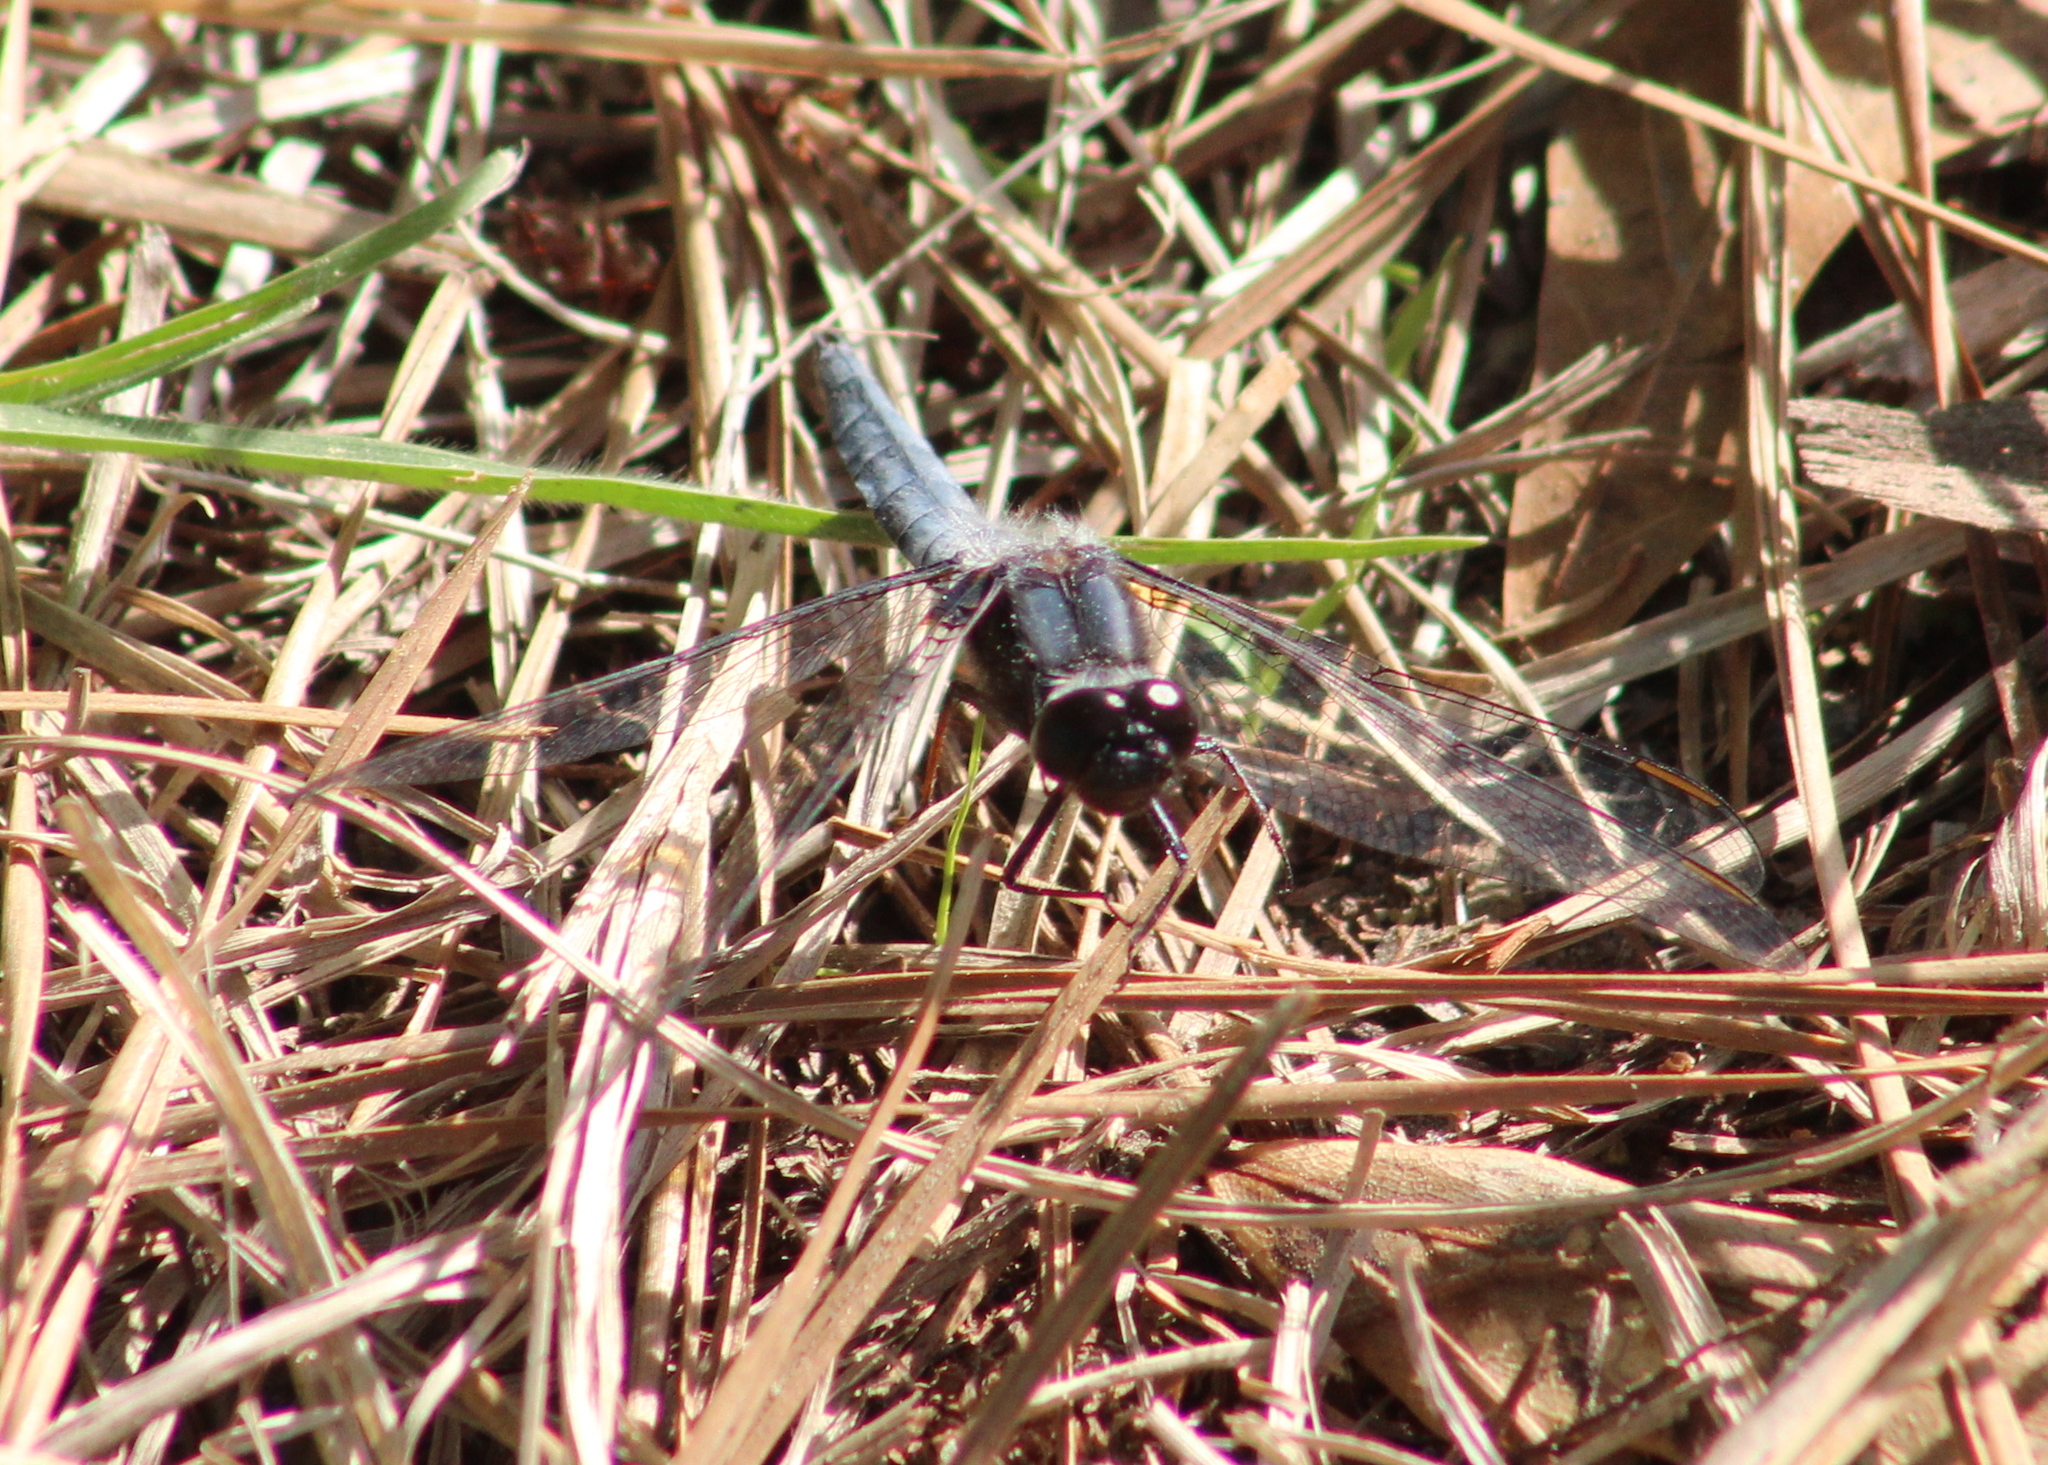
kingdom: Animalia
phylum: Arthropoda
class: Insecta
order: Odonata
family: Libellulidae
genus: Ladona
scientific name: Ladona deplanata
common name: Blue corporal
